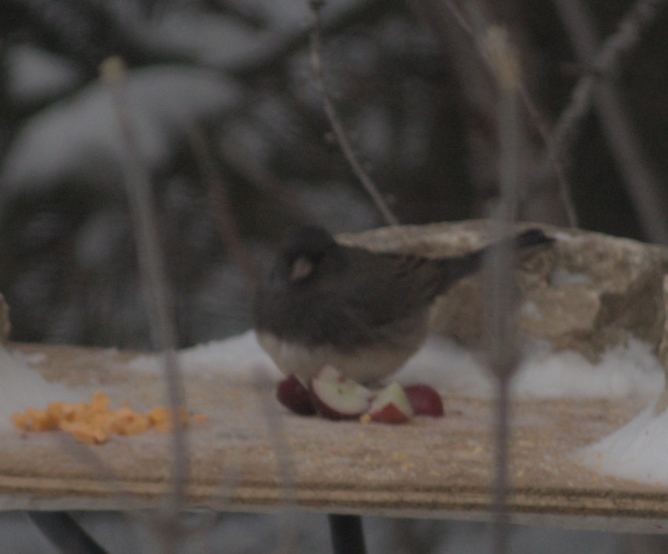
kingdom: Animalia
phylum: Chordata
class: Aves
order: Passeriformes
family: Passerellidae
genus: Junco
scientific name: Junco hyemalis
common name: Dark-eyed junco
